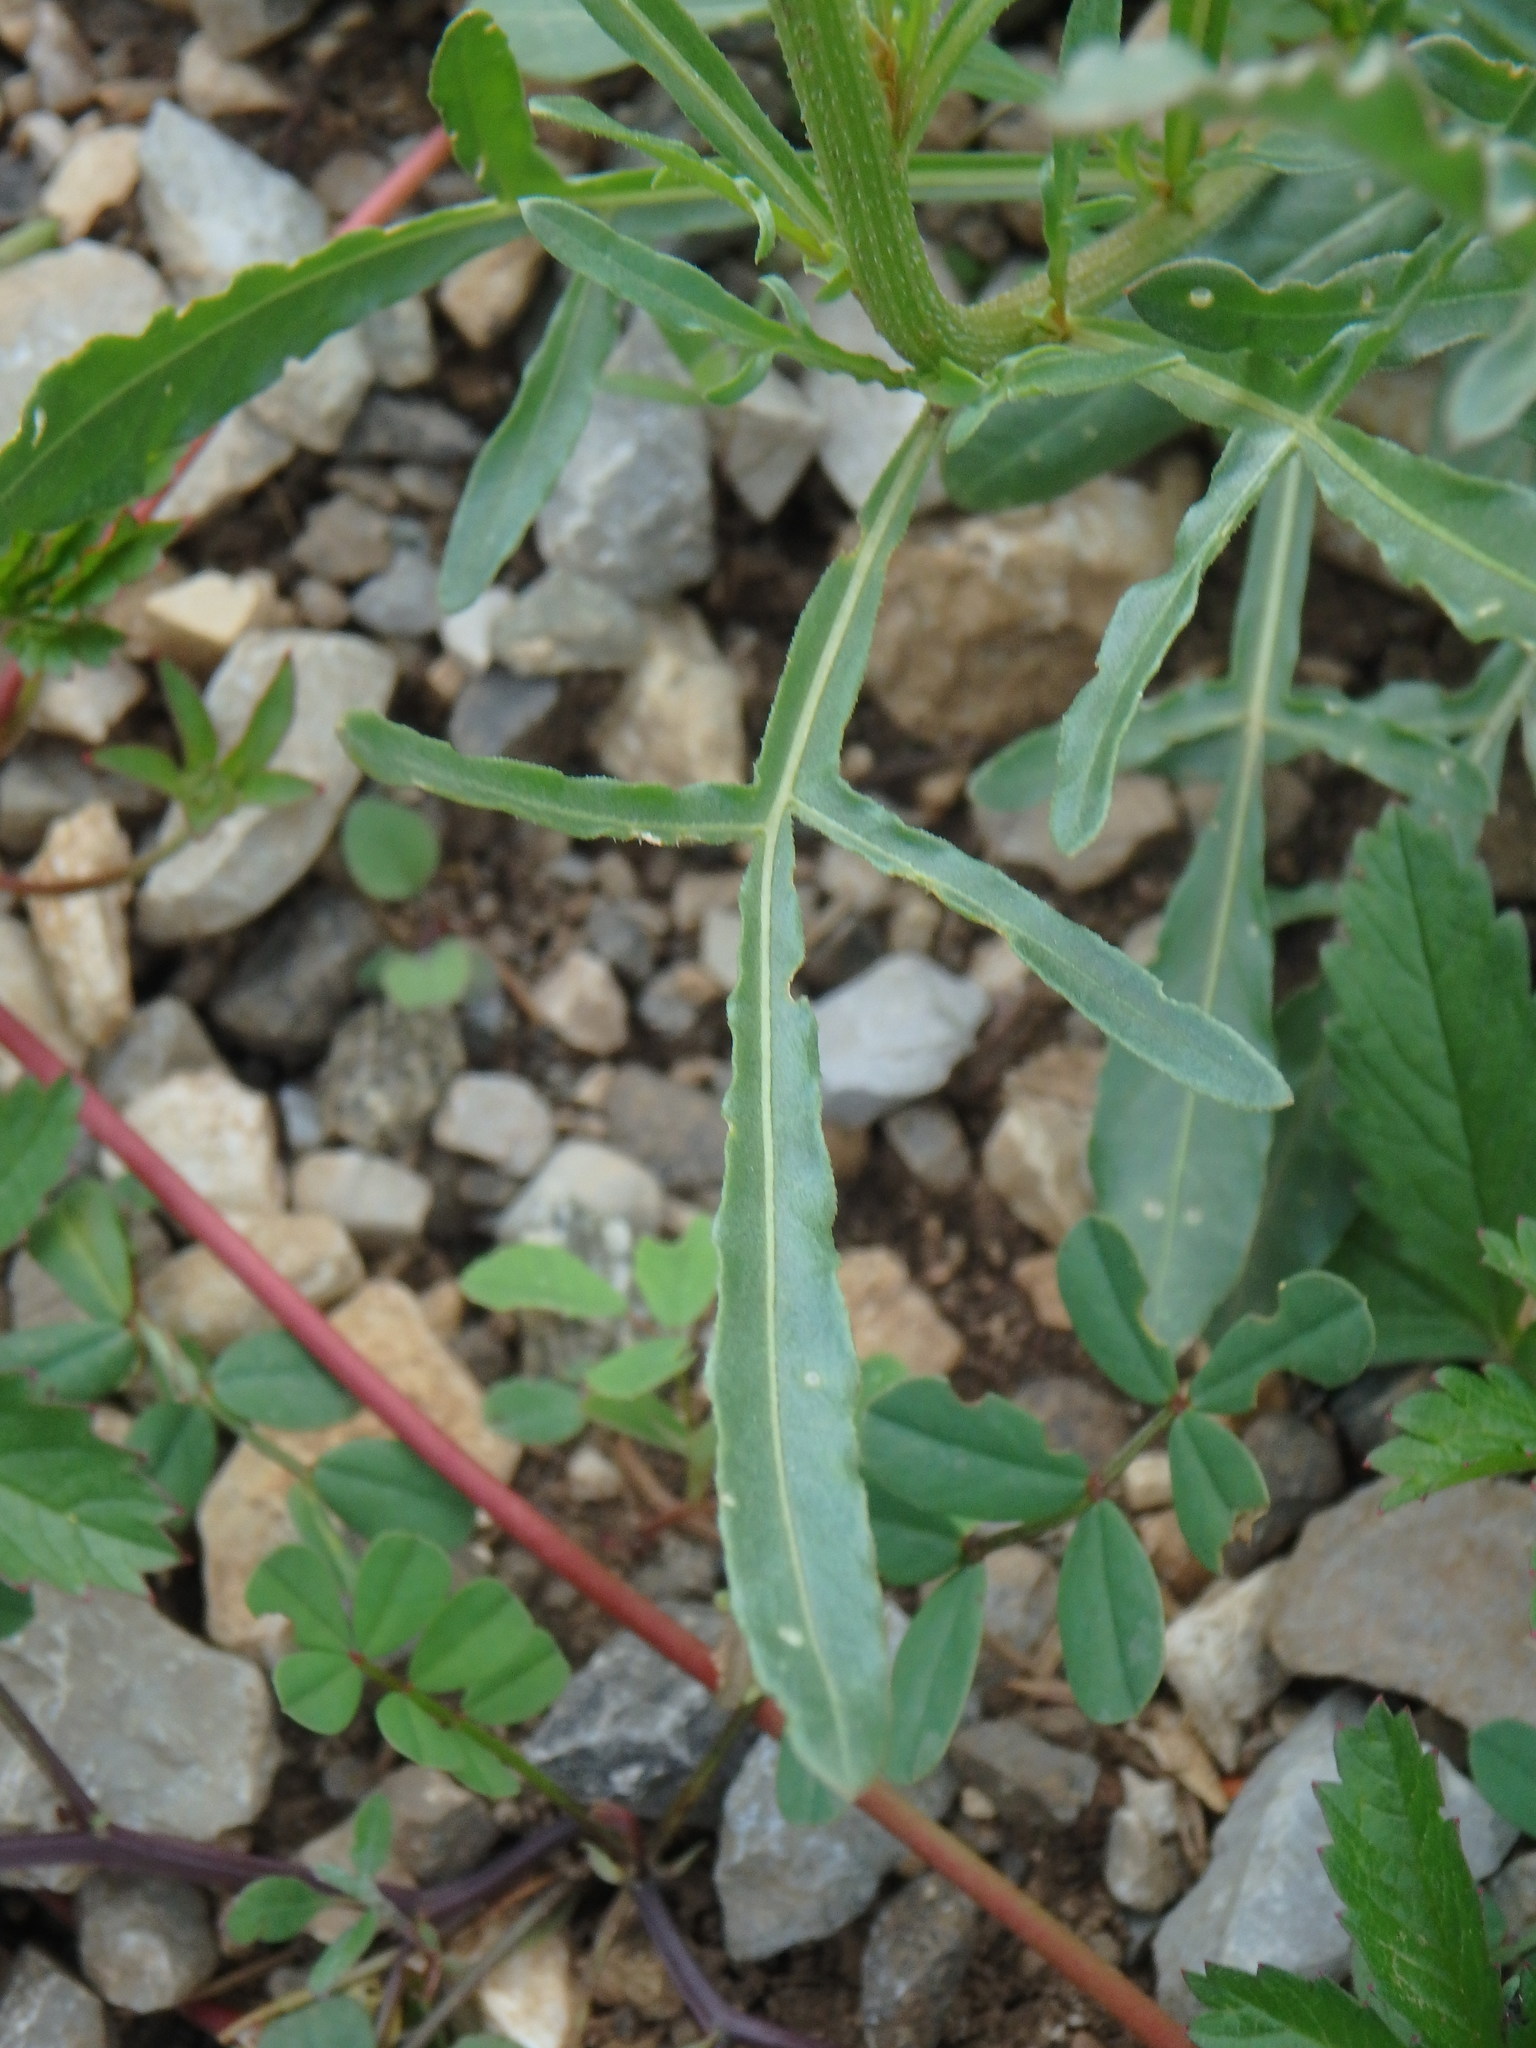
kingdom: Plantae
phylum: Tracheophyta
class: Magnoliopsida
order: Brassicales
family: Resedaceae
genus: Reseda
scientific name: Reseda lutea
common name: Wild mignonette
